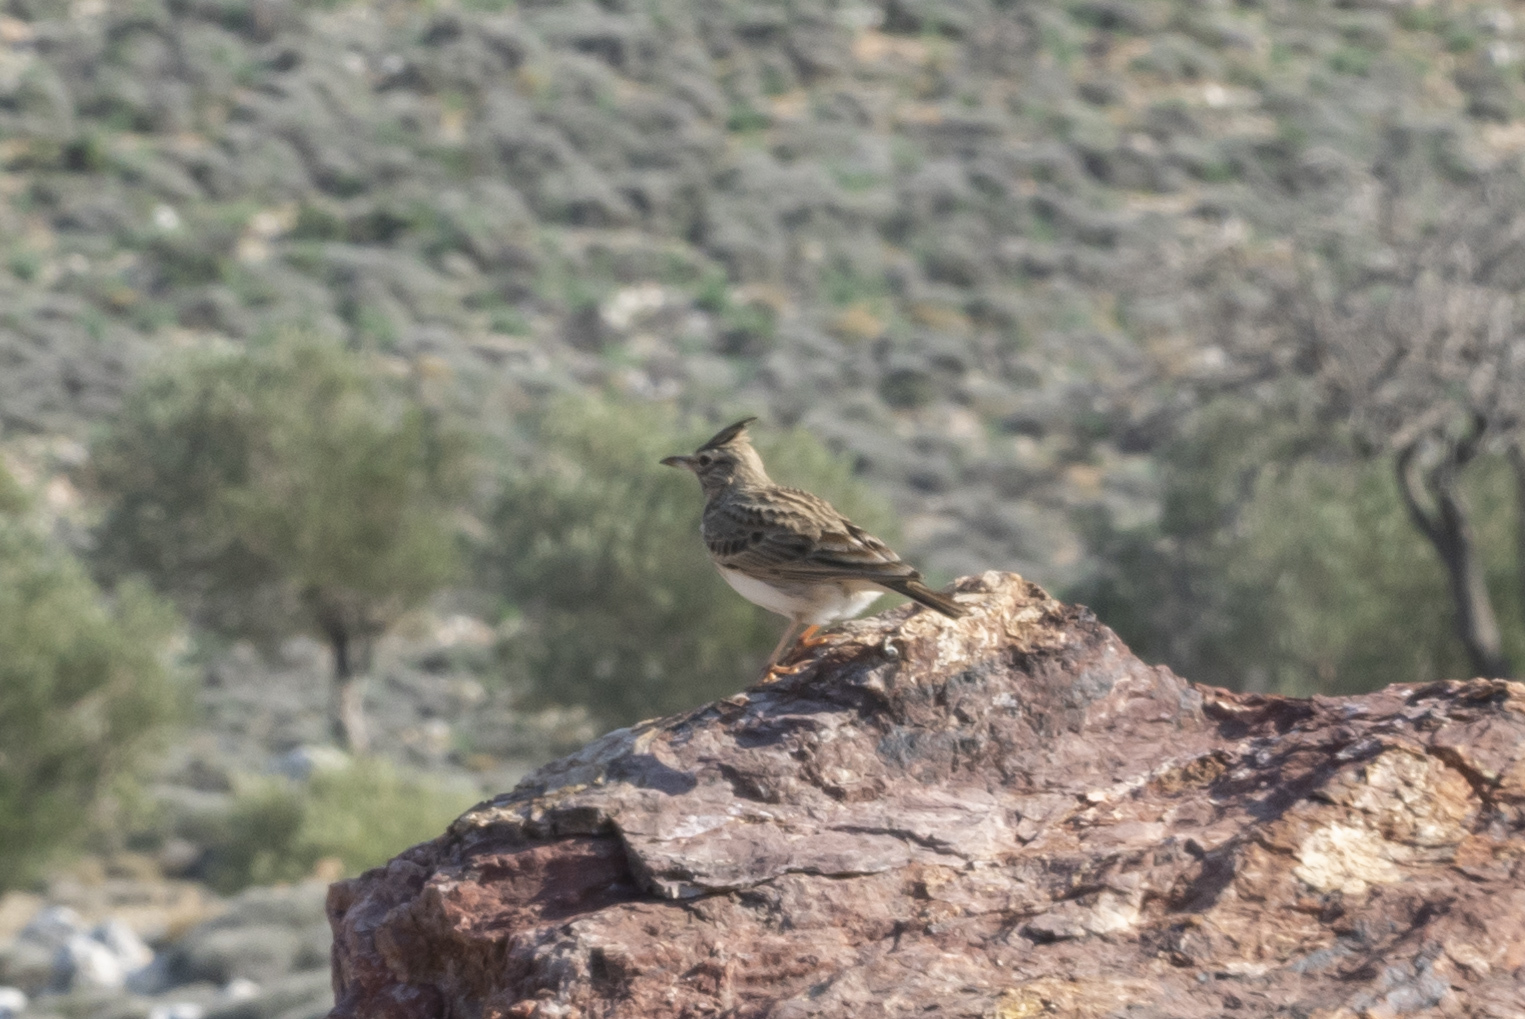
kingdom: Animalia
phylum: Chordata
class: Aves
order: Passeriformes
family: Alaudidae
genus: Galerida
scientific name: Galerida cristata
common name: Crested lark
